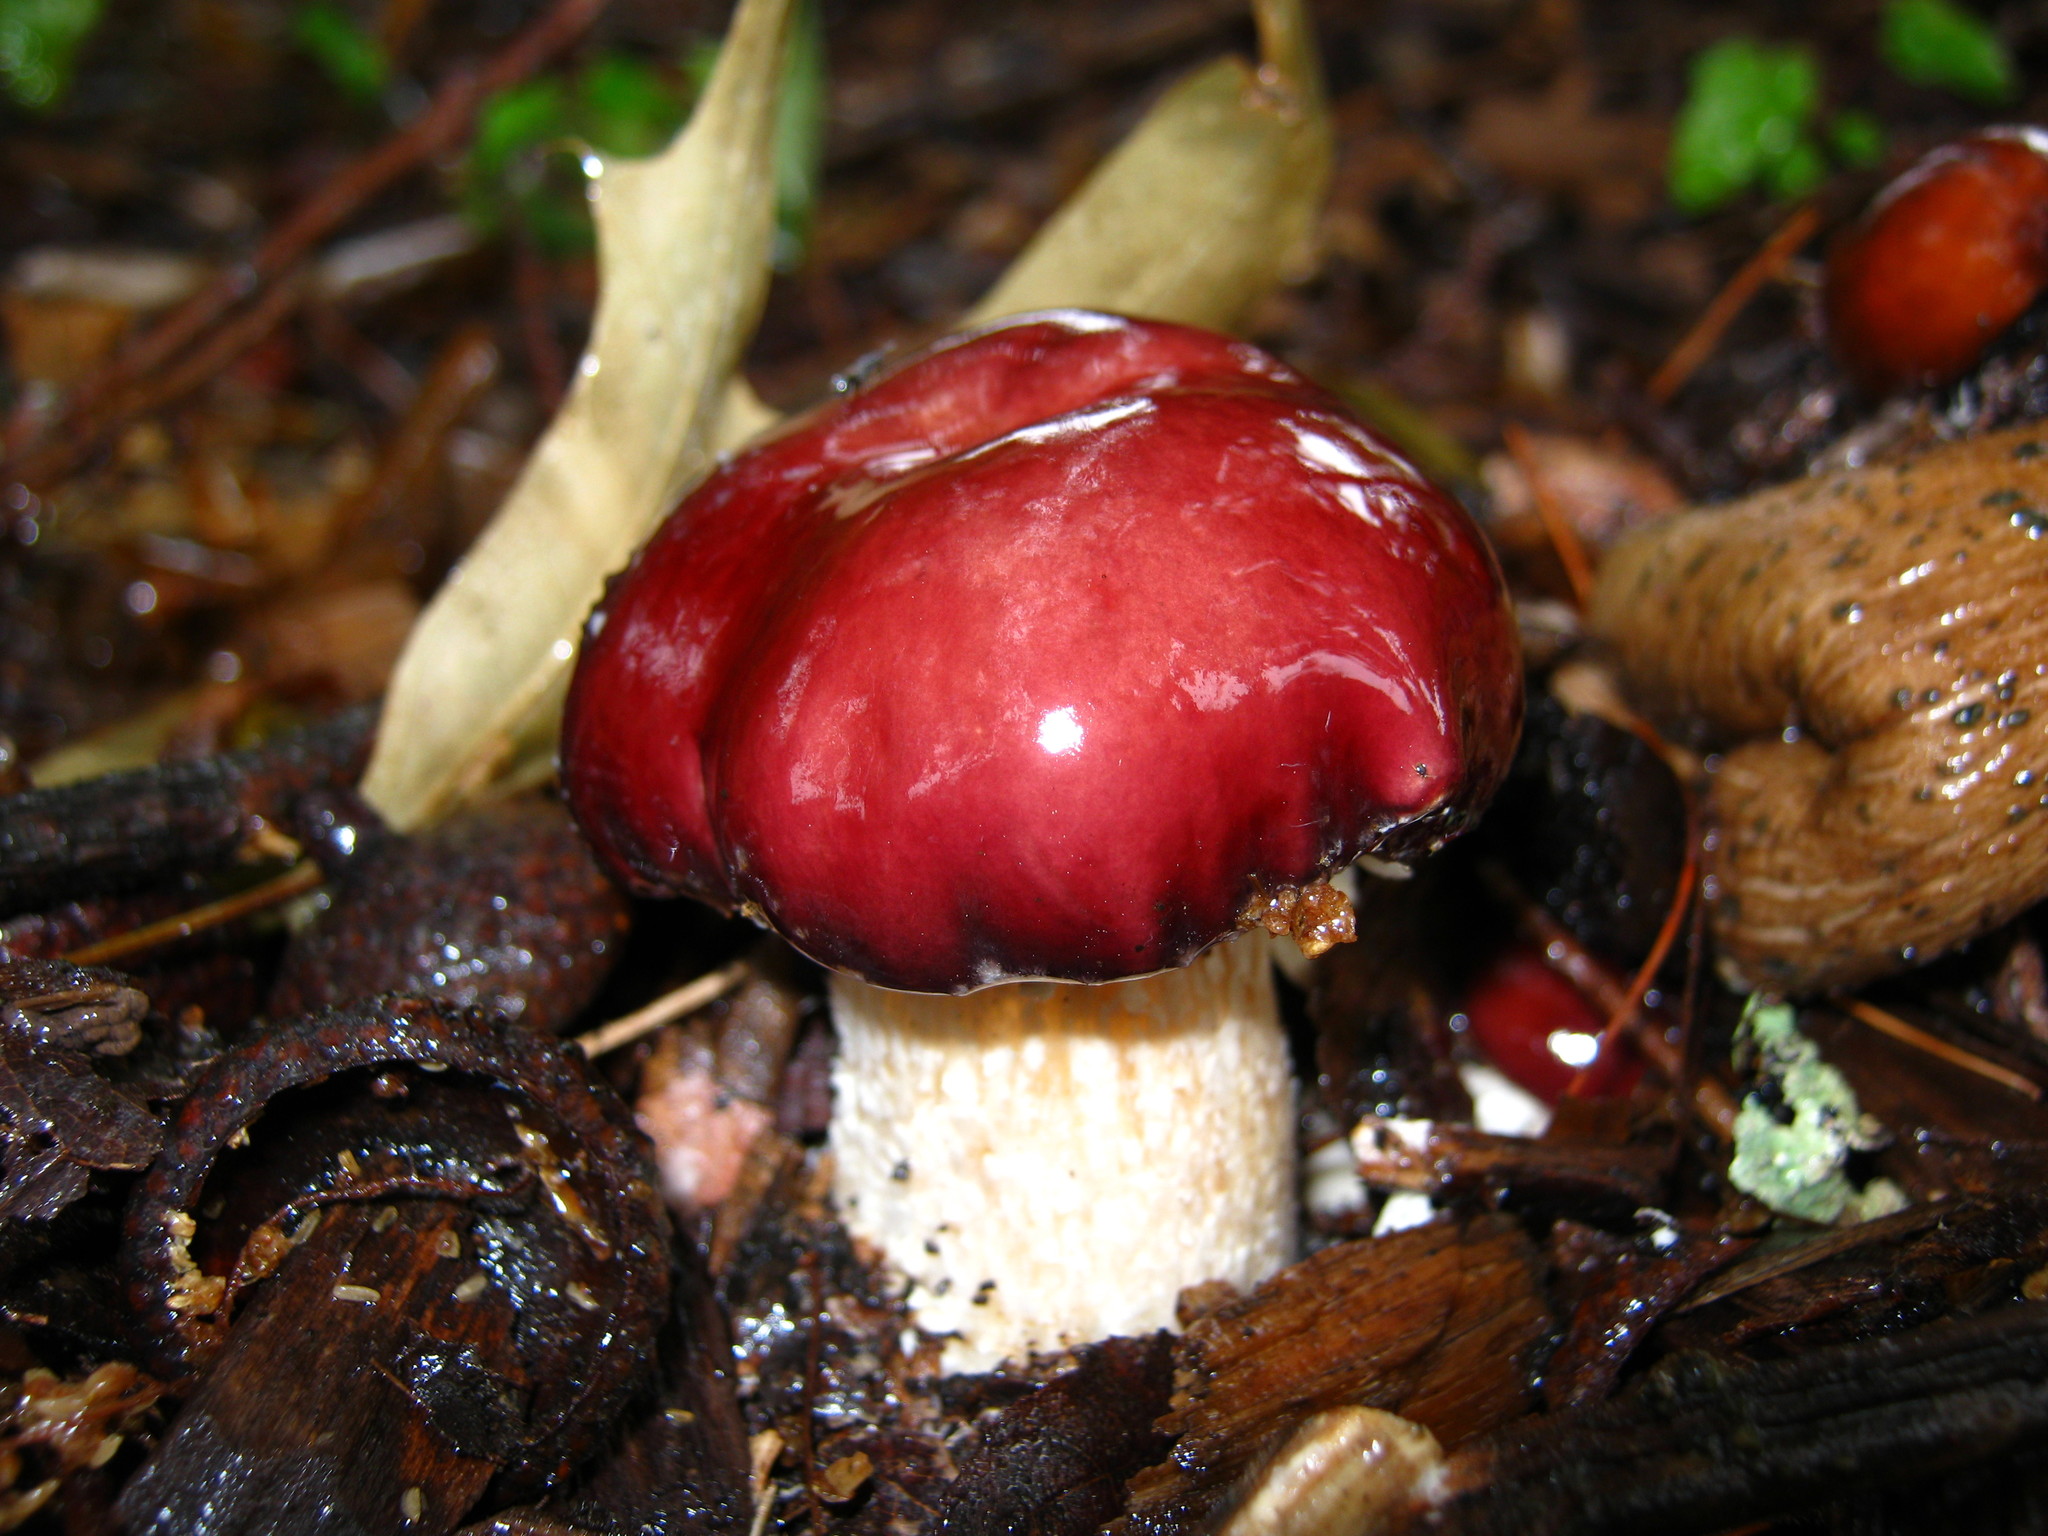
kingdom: Fungi
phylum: Basidiomycota
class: Agaricomycetes
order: Agaricales
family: Strophariaceae
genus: Stropharia
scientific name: Stropharia rugosoannulata
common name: Wine roundhead
